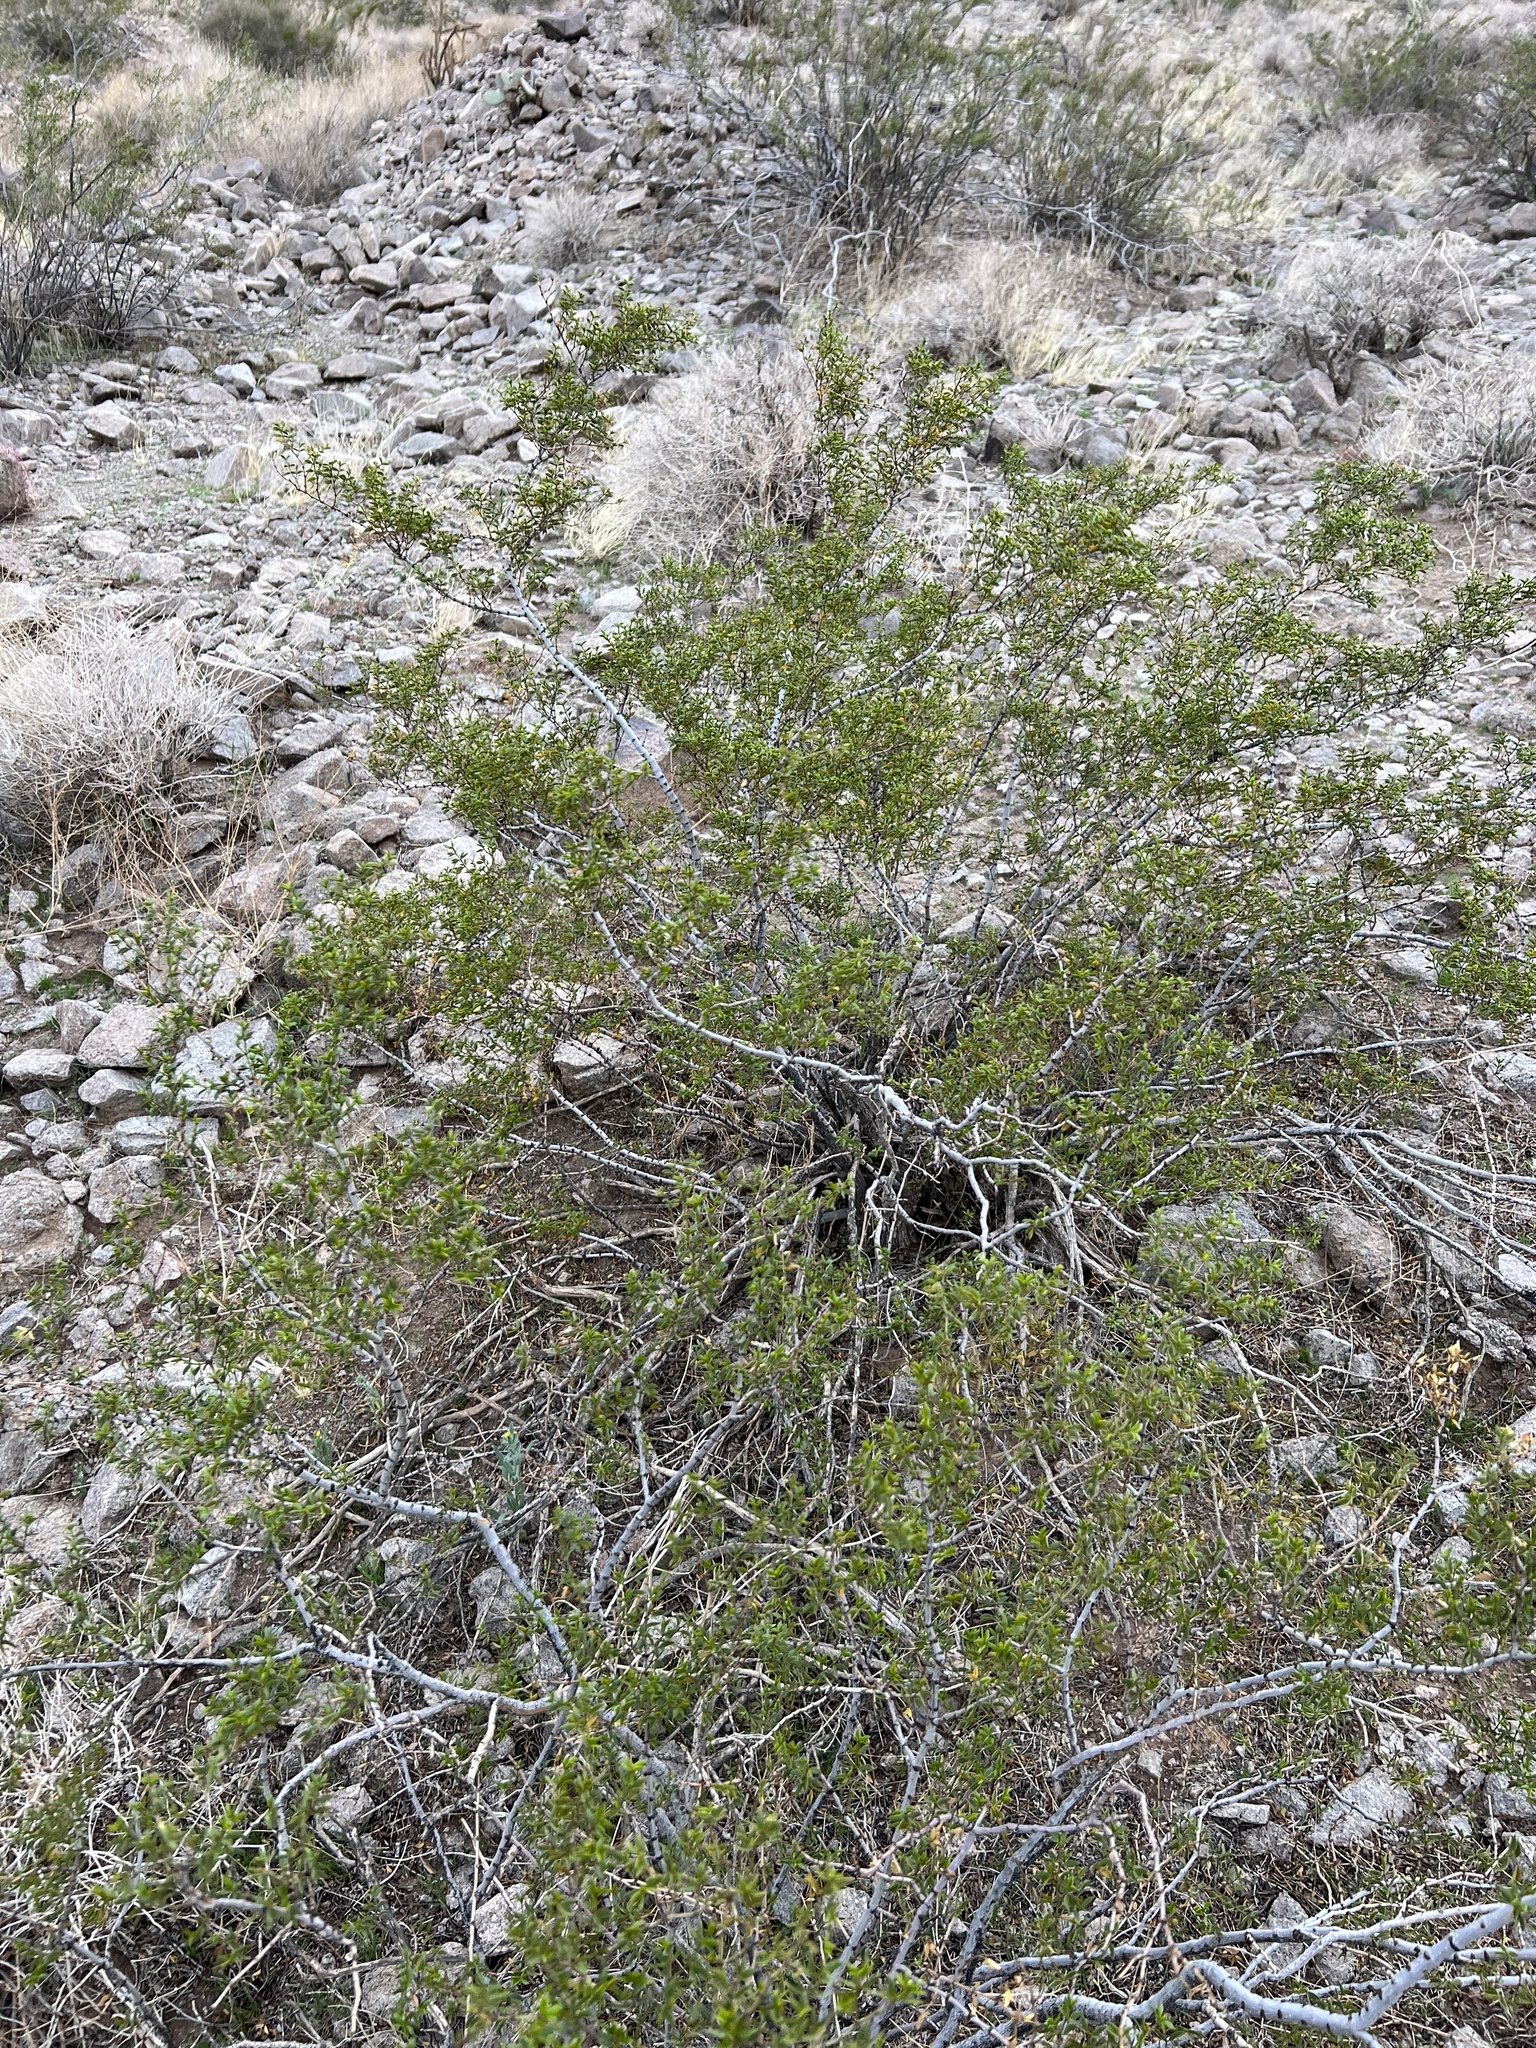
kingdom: Plantae
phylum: Tracheophyta
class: Magnoliopsida
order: Zygophyllales
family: Zygophyllaceae
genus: Larrea
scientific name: Larrea tridentata
